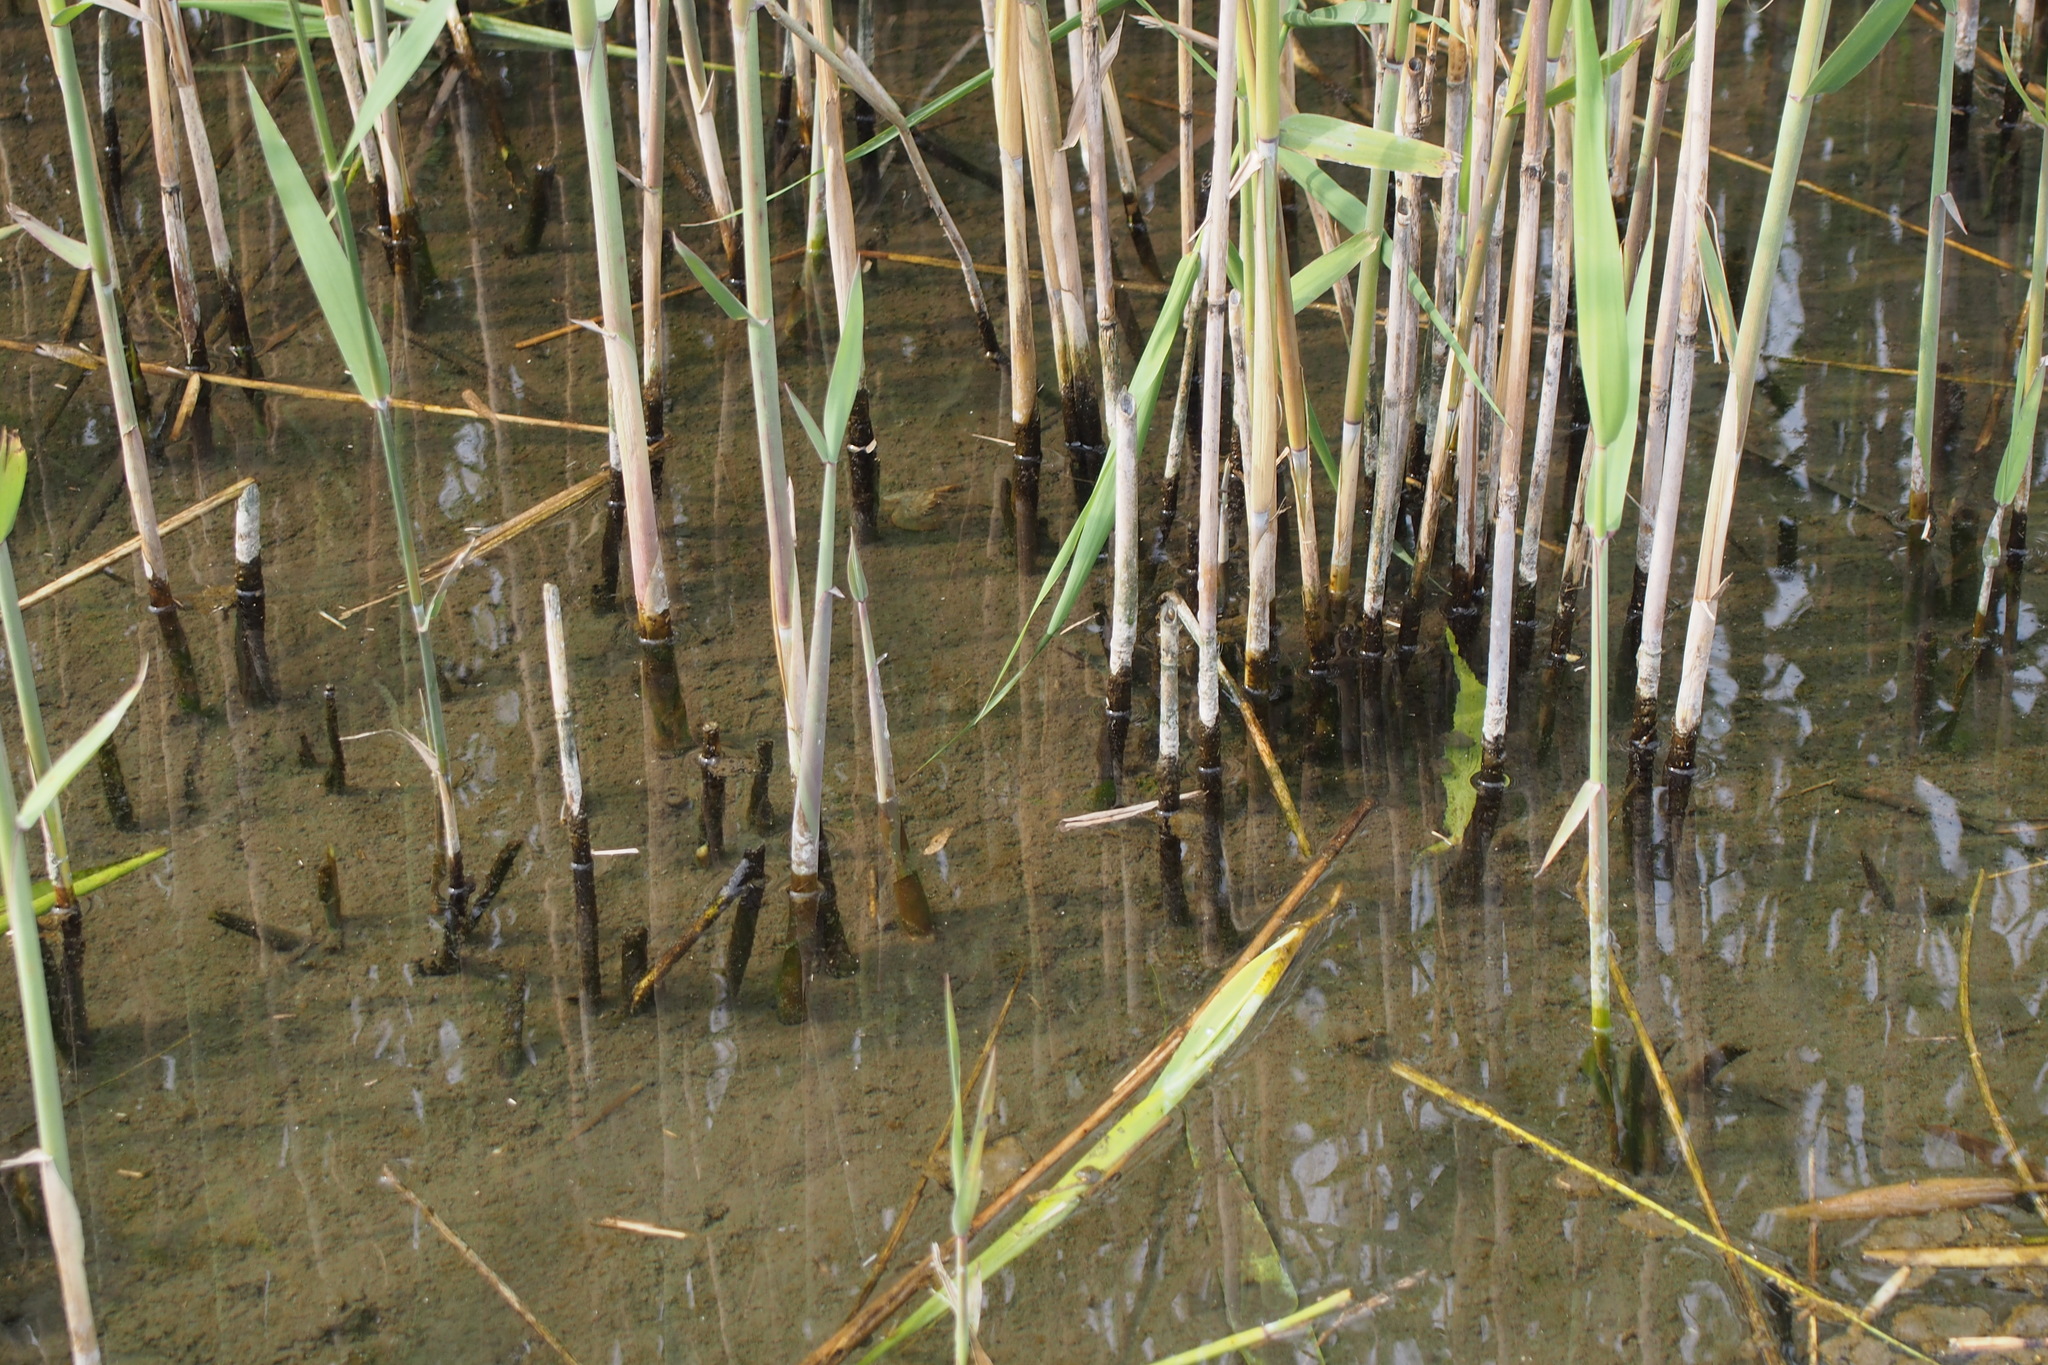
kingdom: Plantae
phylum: Tracheophyta
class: Liliopsida
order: Poales
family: Poaceae
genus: Phalaris
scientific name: Phalaris arundinacea
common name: Reed canary-grass
